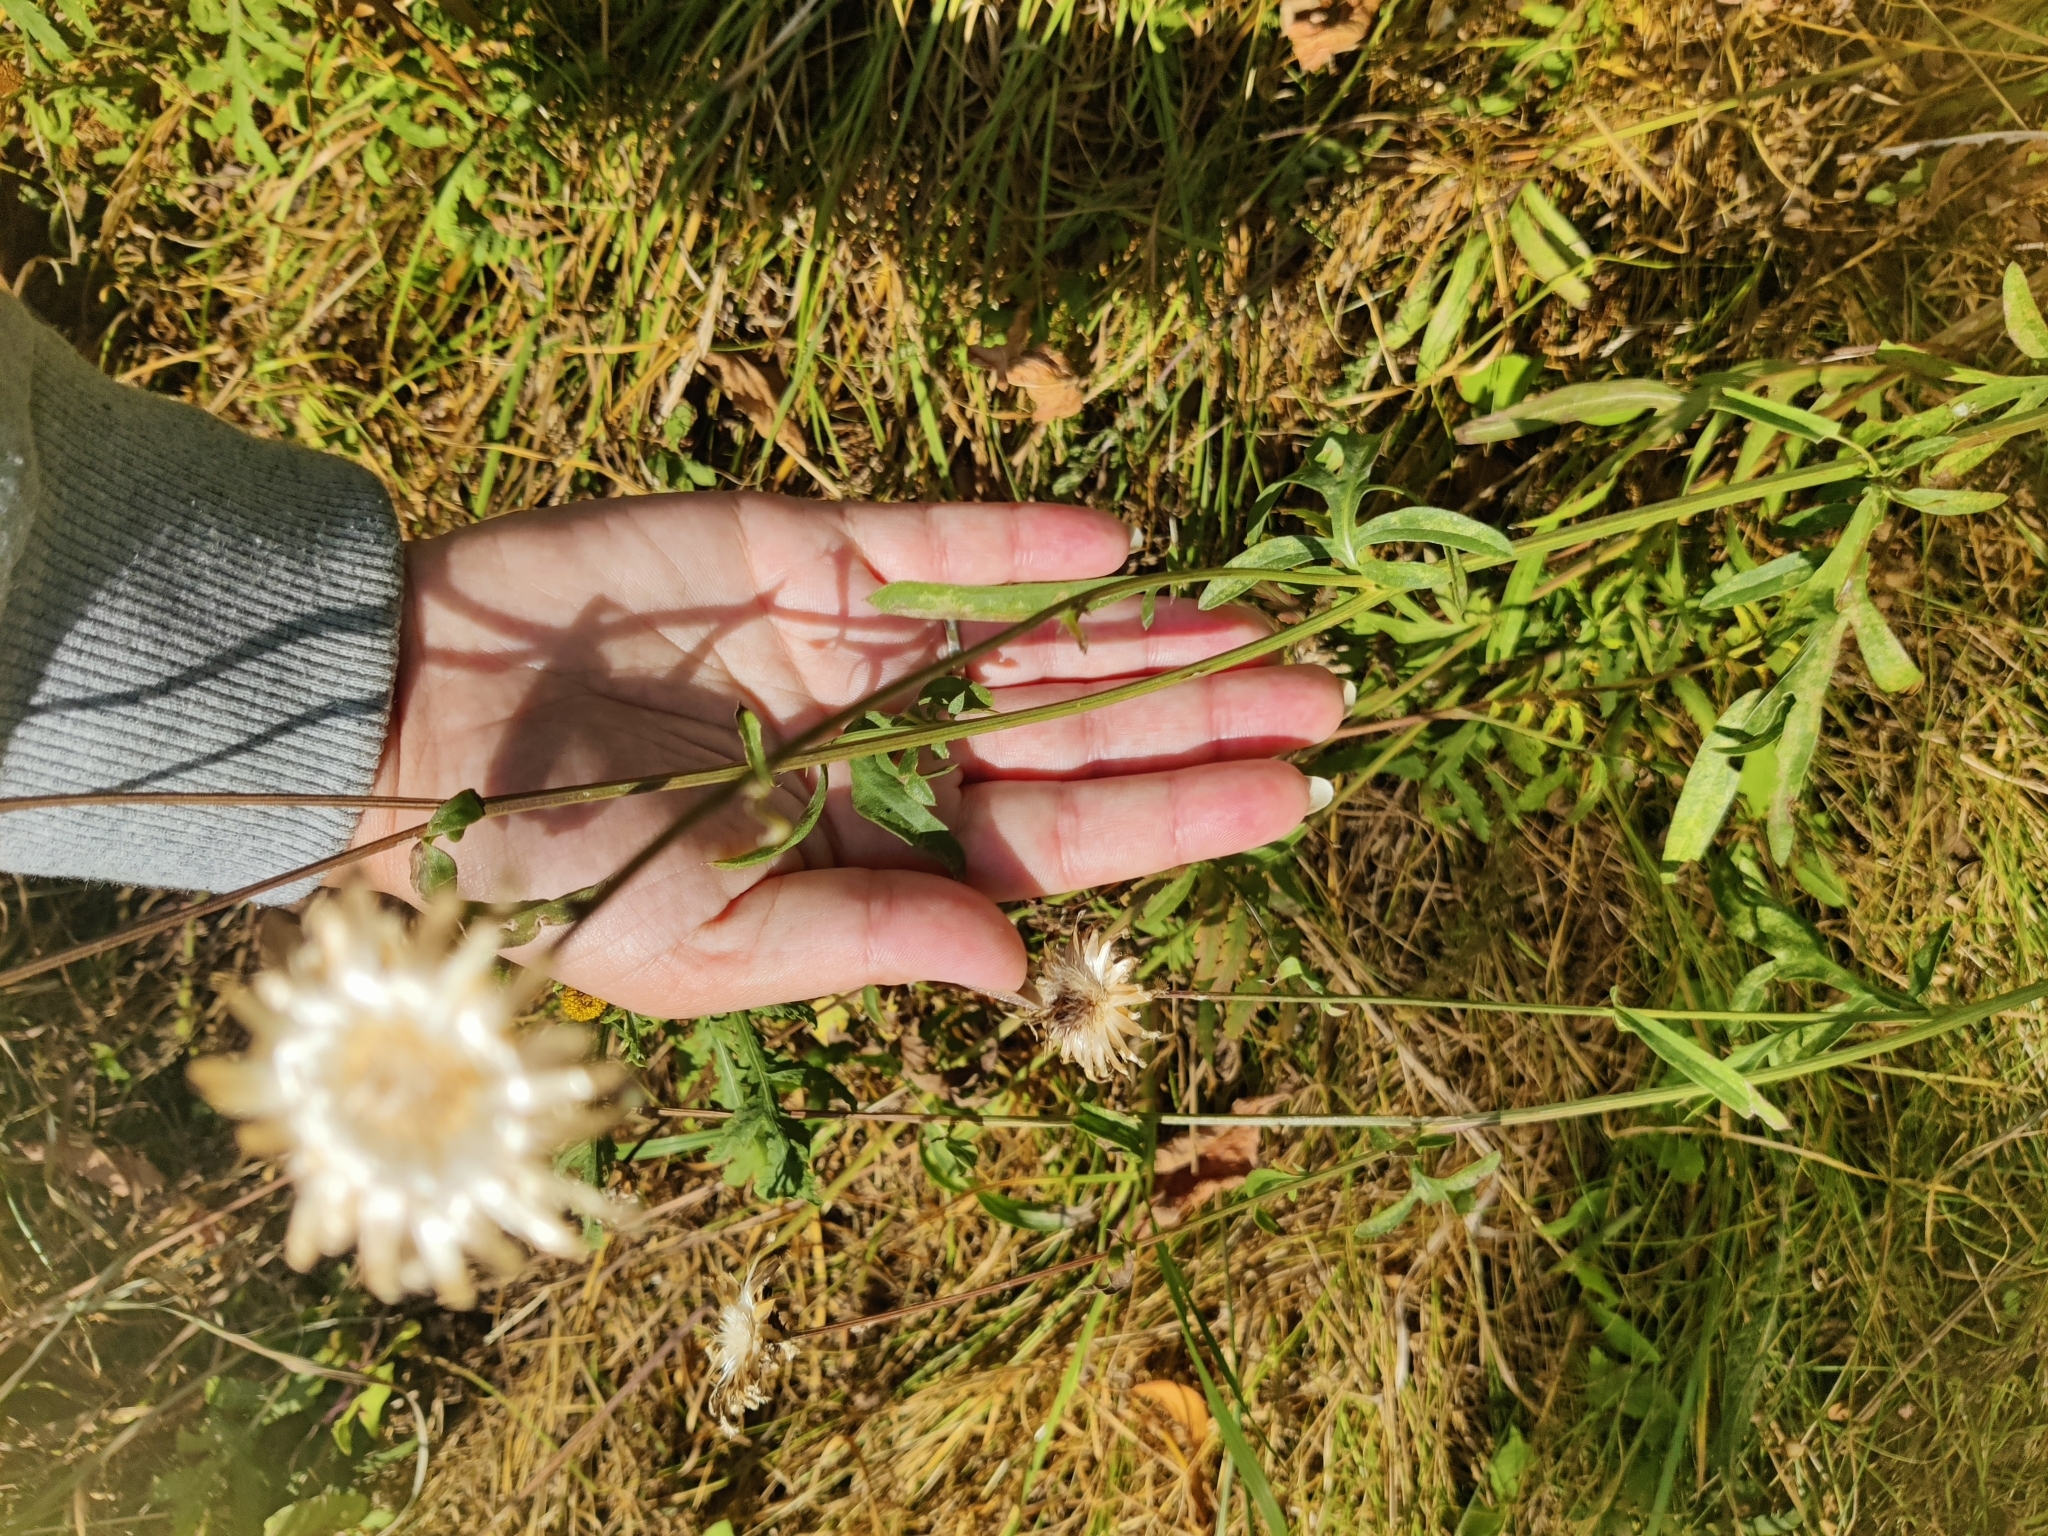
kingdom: Plantae
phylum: Tracheophyta
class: Magnoliopsida
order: Asterales
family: Asteraceae
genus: Centaurea
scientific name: Centaurea scabiosa
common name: Greater knapweed
